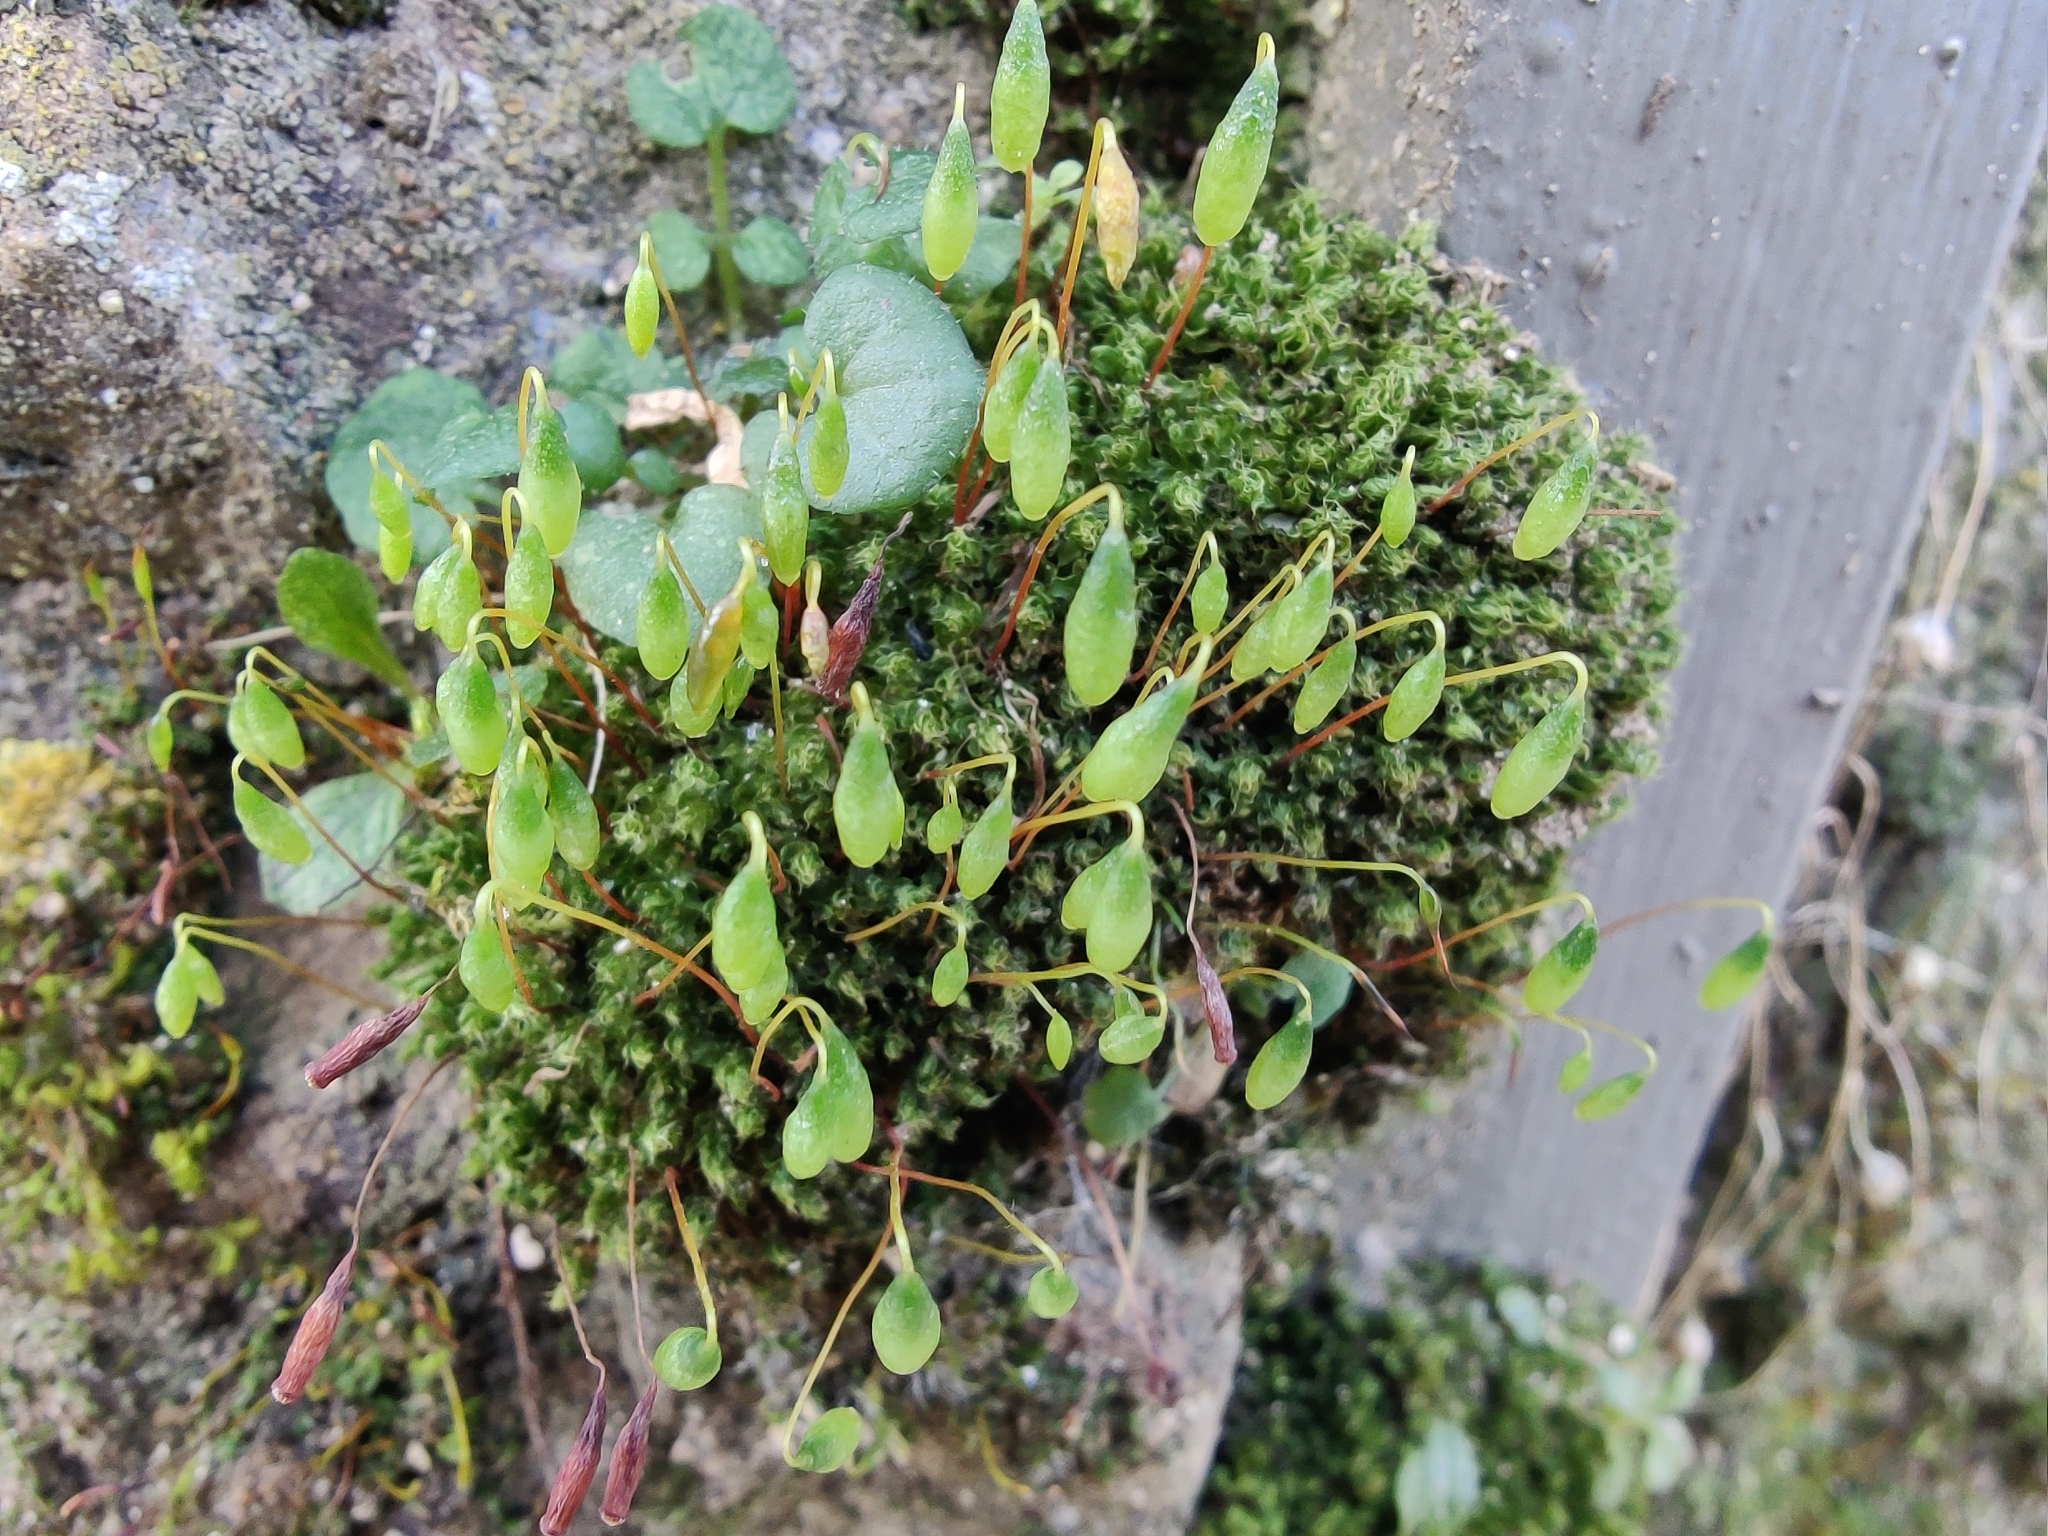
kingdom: Plantae
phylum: Bryophyta
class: Bryopsida
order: Bryales
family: Bryaceae
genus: Rosulabryum
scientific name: Rosulabryum capillare
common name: Capillary thread-moss
